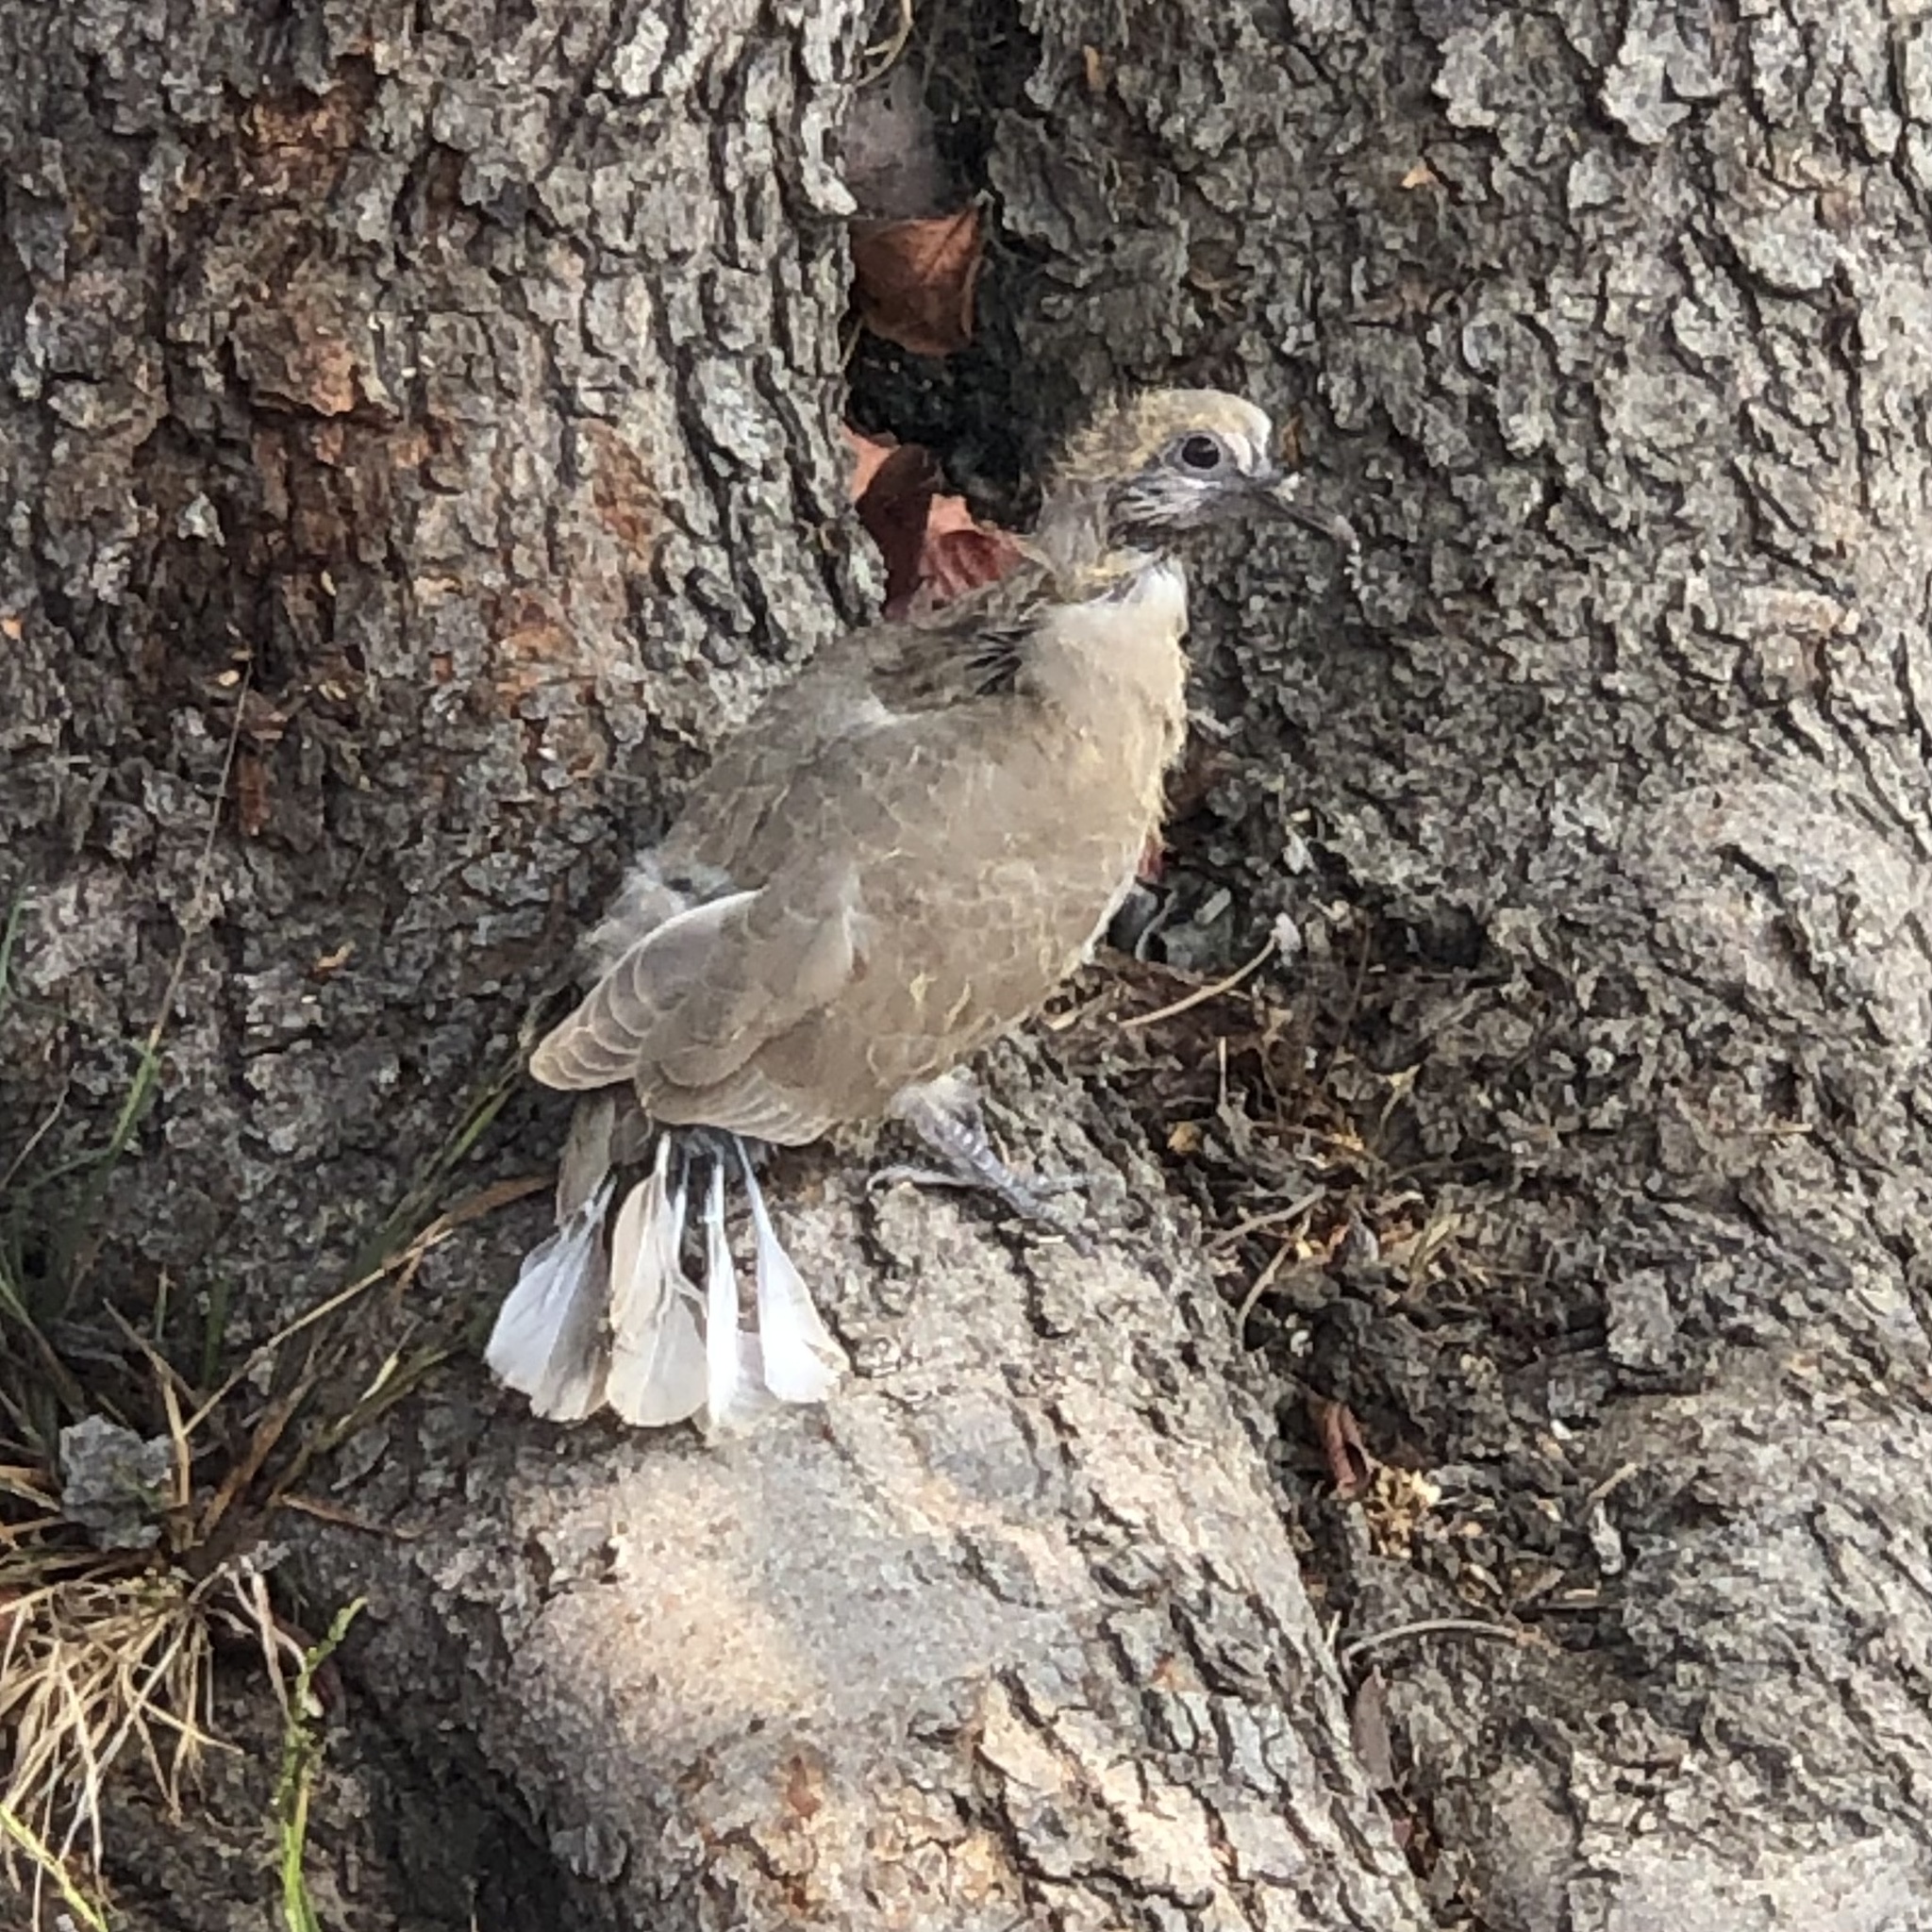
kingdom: Animalia
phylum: Chordata
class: Aves
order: Columbiformes
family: Columbidae
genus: Streptopelia
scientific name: Streptopelia decaocto
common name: Eurasian collared dove
